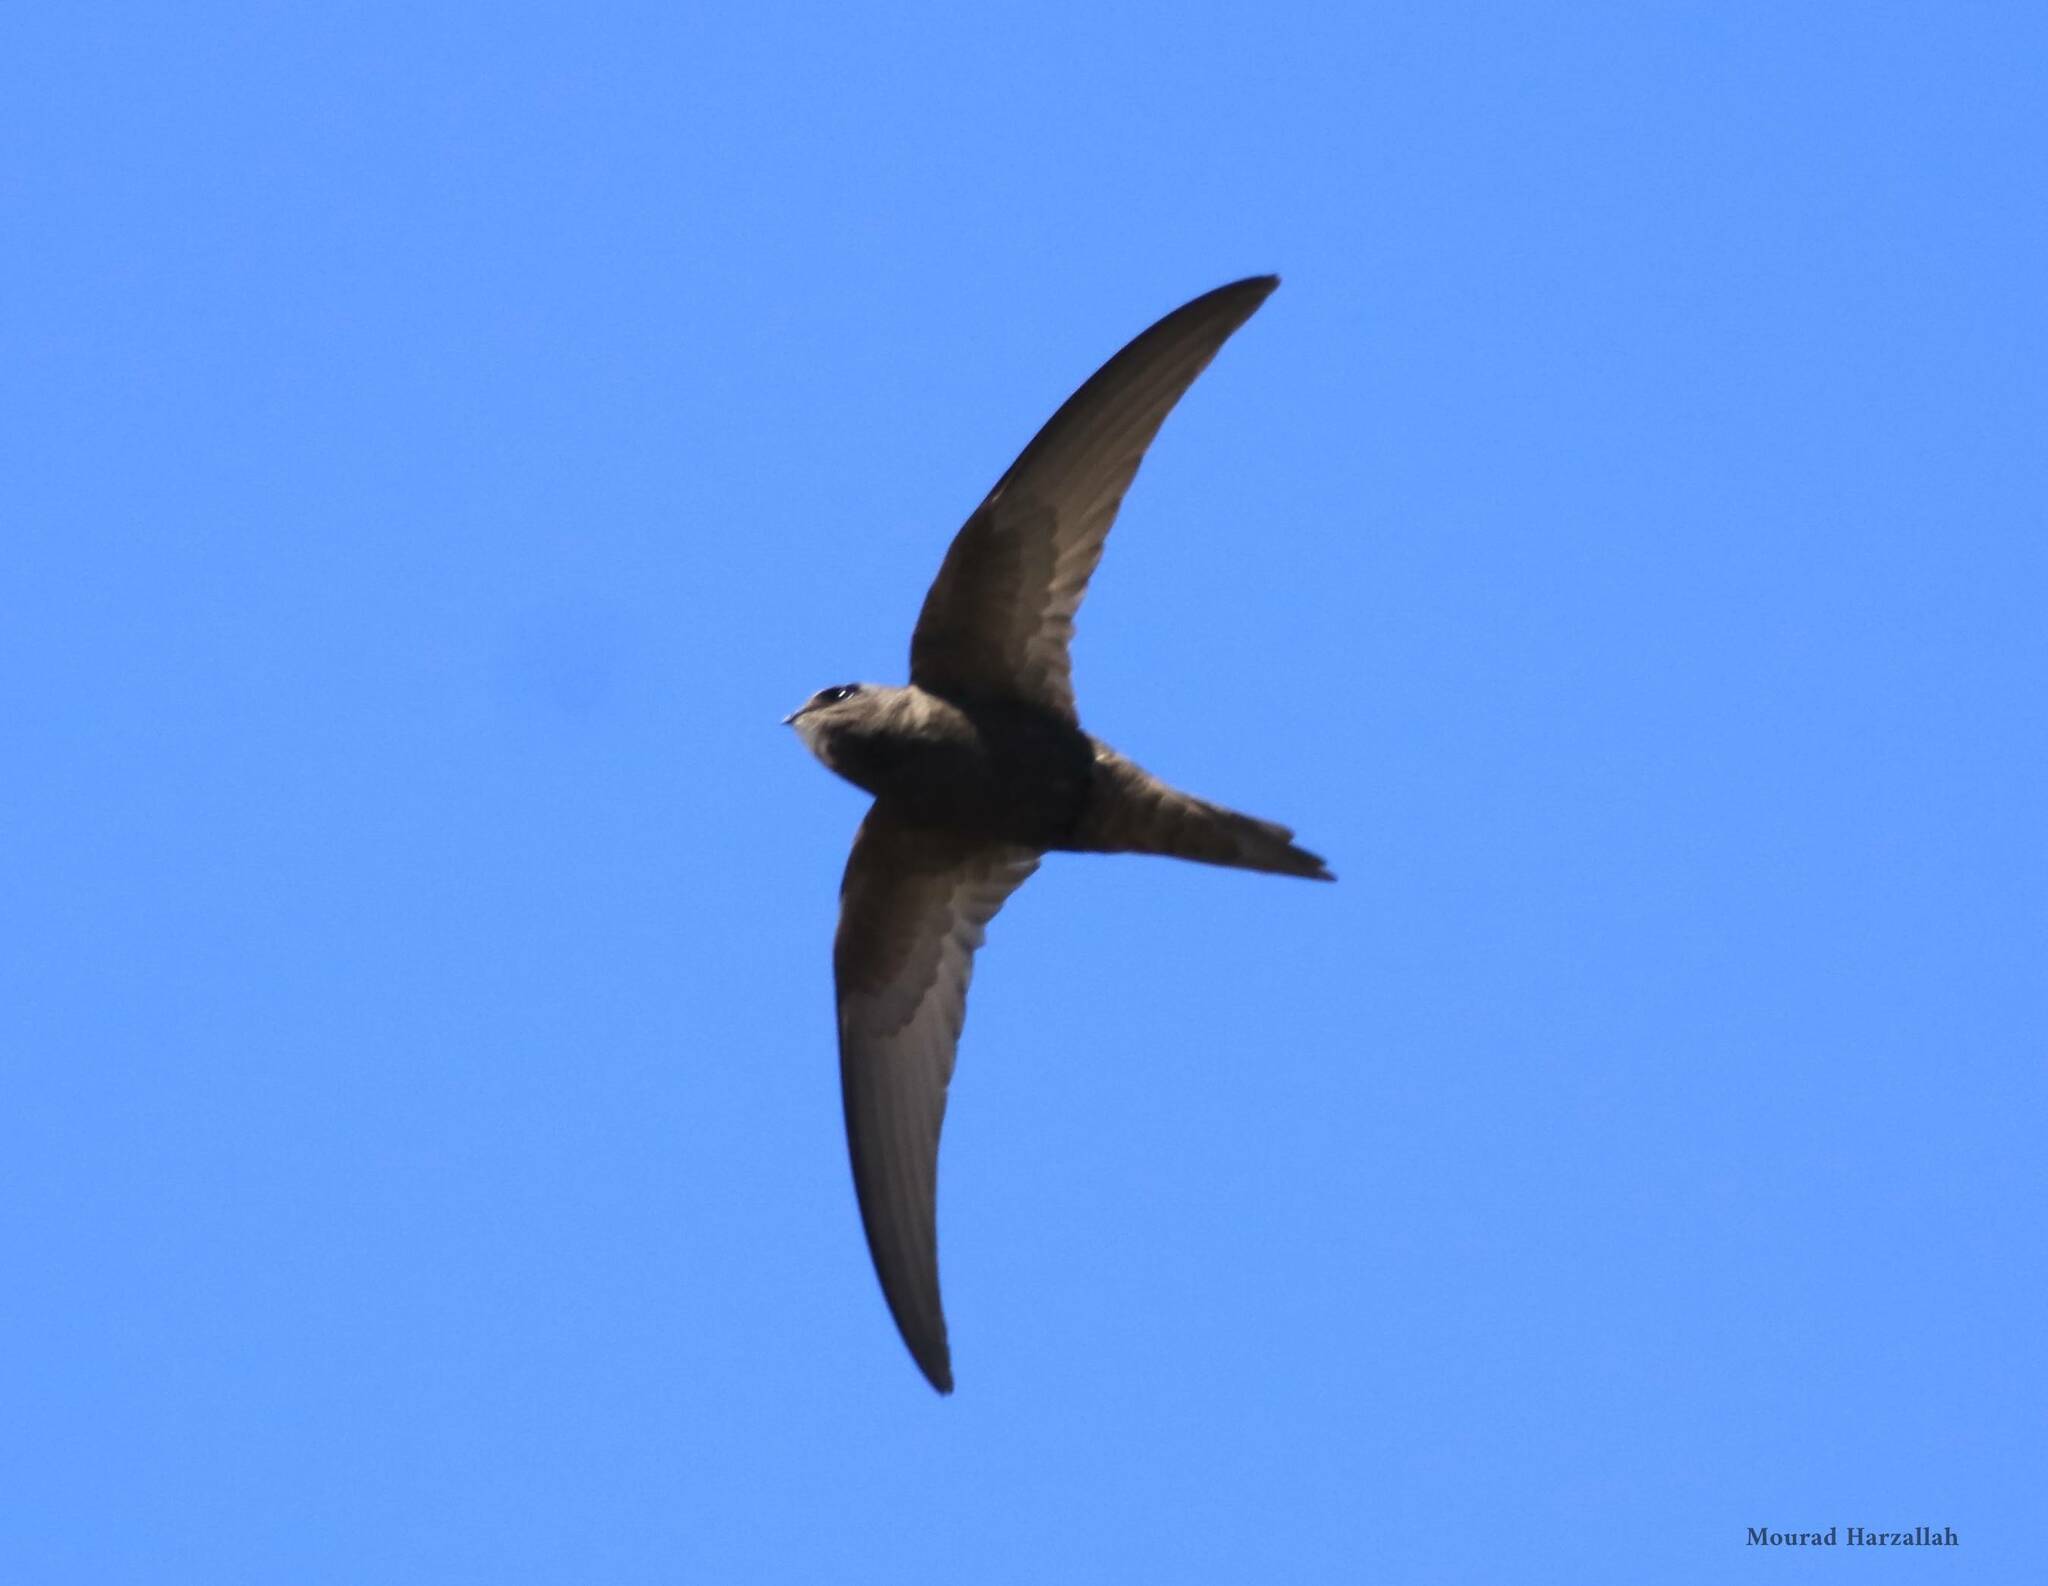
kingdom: Animalia
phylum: Chordata
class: Aves
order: Apodiformes
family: Apodidae
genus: Apus
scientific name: Apus apus
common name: Common swift
